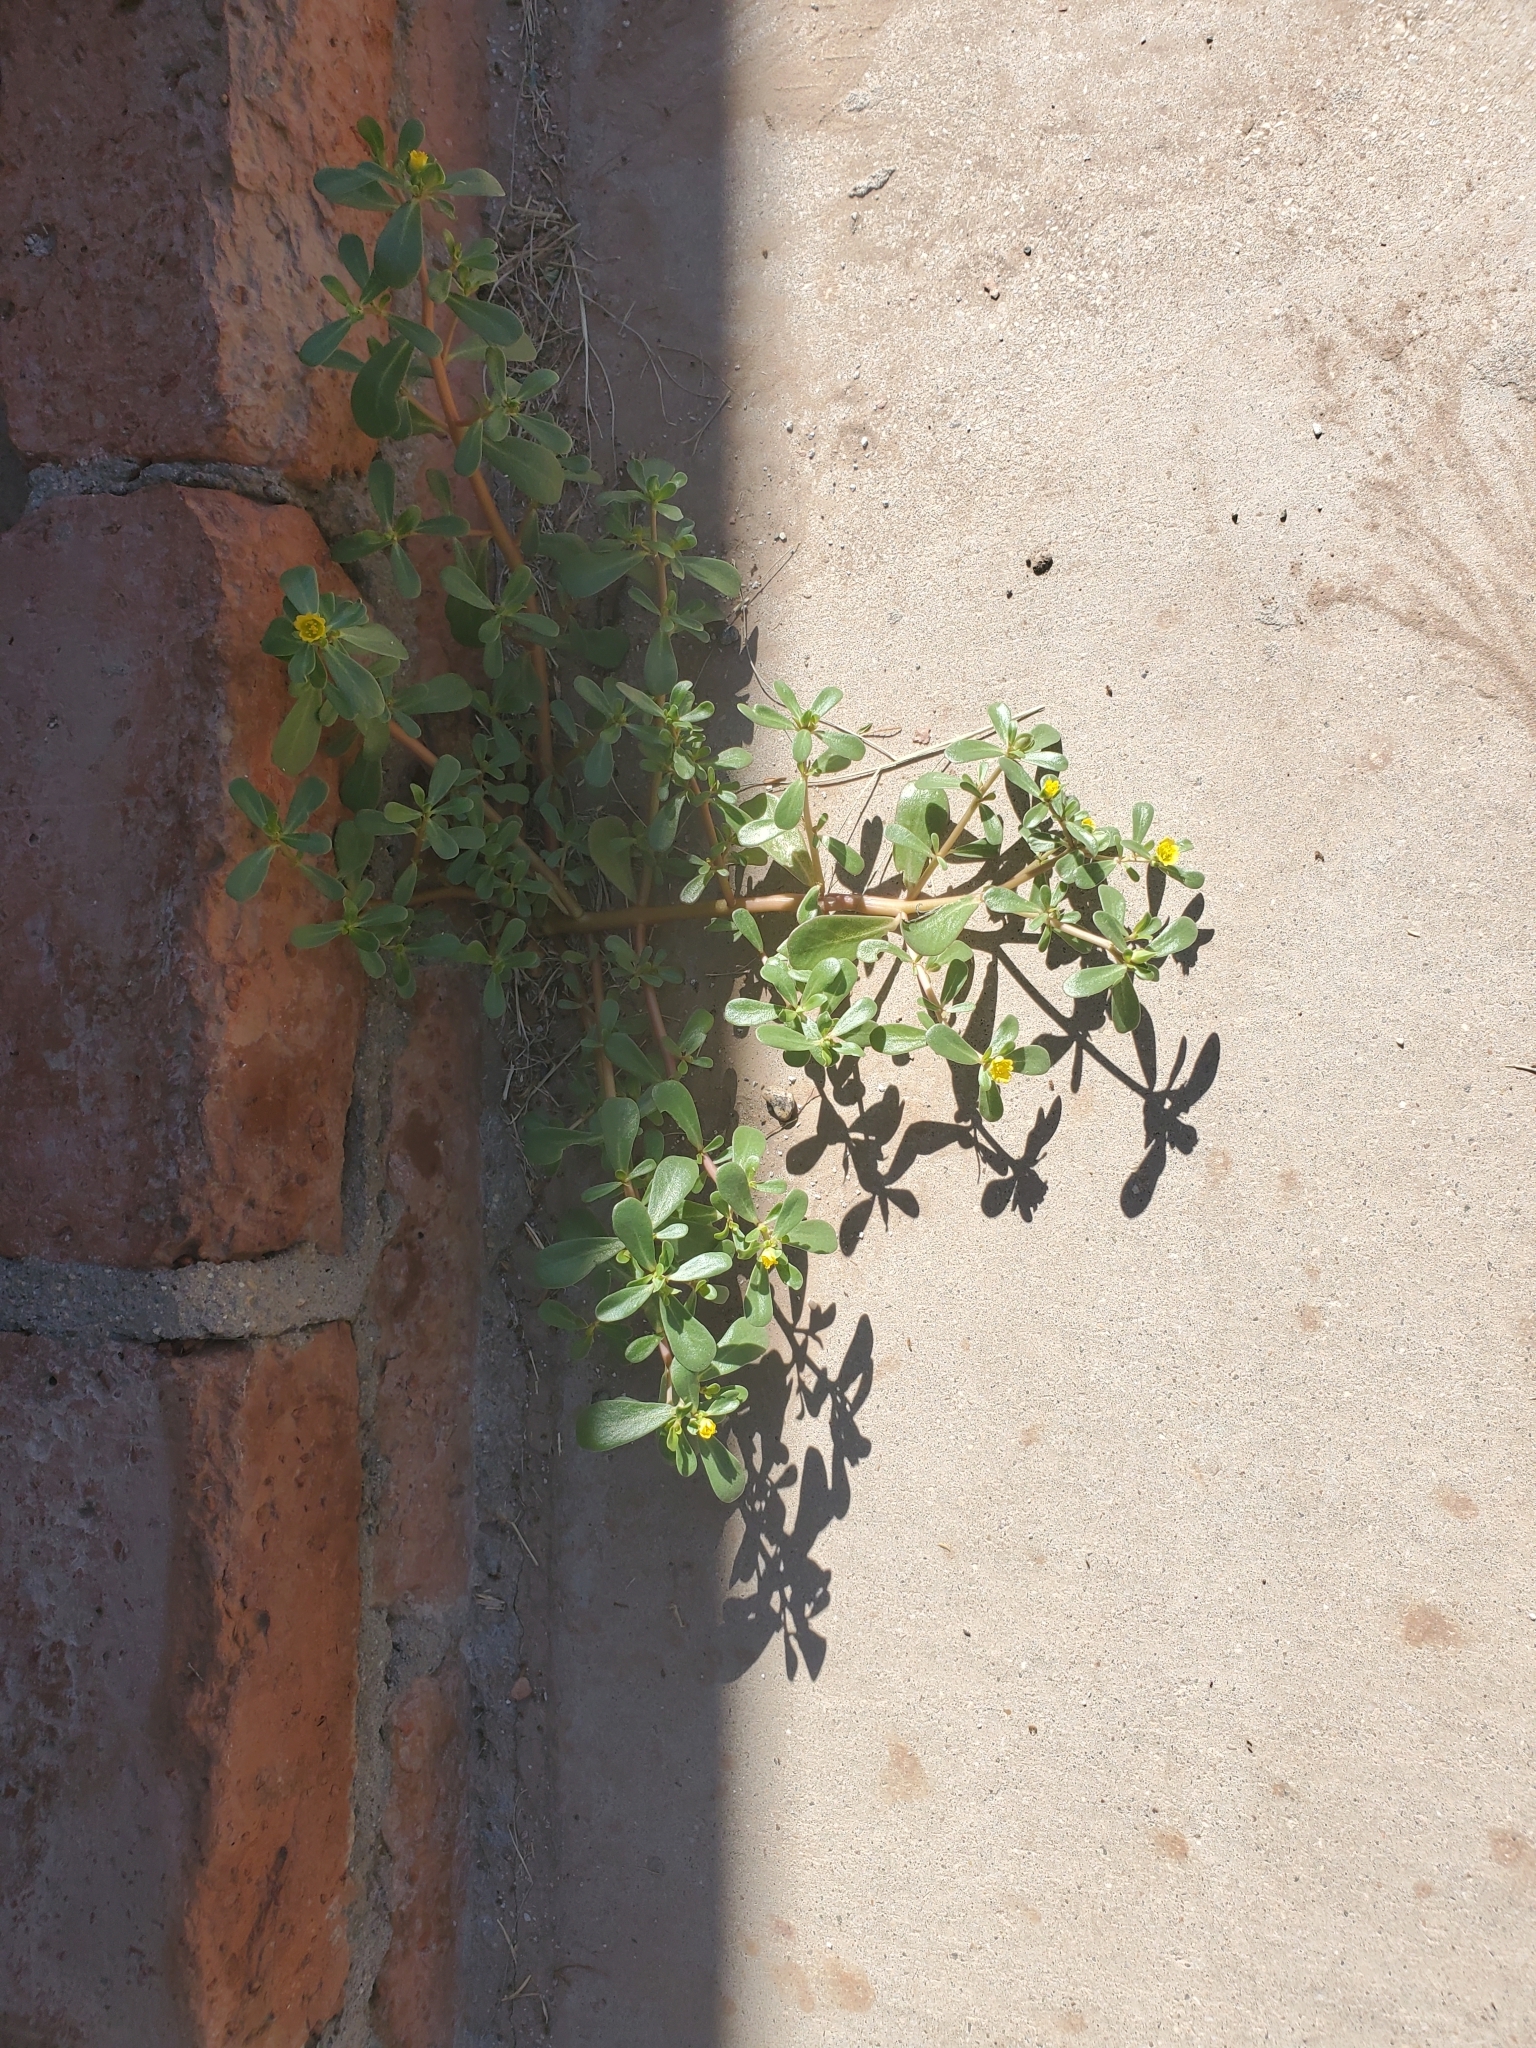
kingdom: Plantae
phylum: Tracheophyta
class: Magnoliopsida
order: Caryophyllales
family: Portulacaceae
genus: Portulaca
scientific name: Portulaca oleracea
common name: Common purslane
